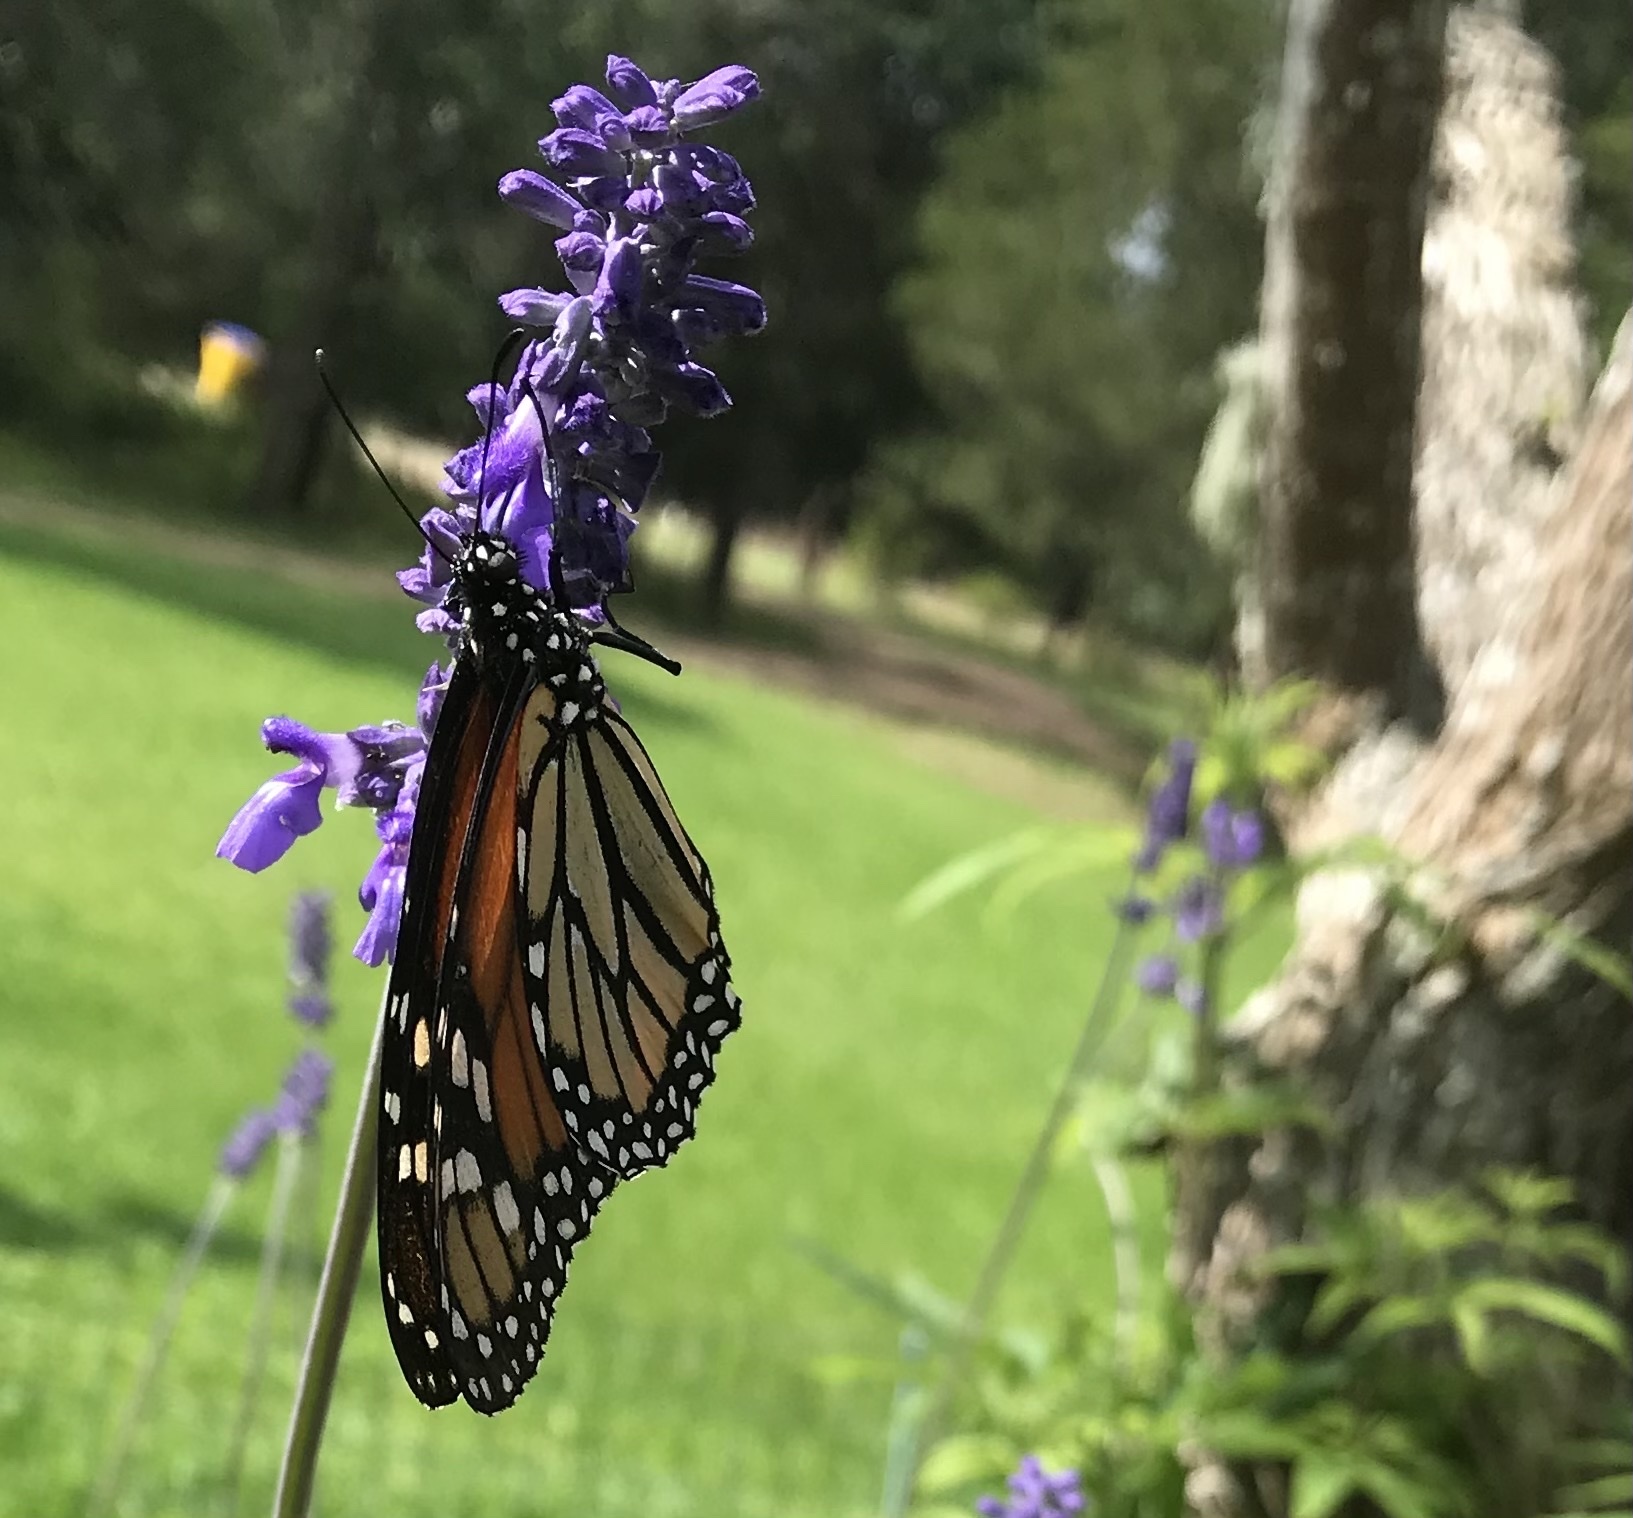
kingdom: Animalia
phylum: Arthropoda
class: Insecta
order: Lepidoptera
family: Nymphalidae
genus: Danaus
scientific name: Danaus plexippus
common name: Monarch
